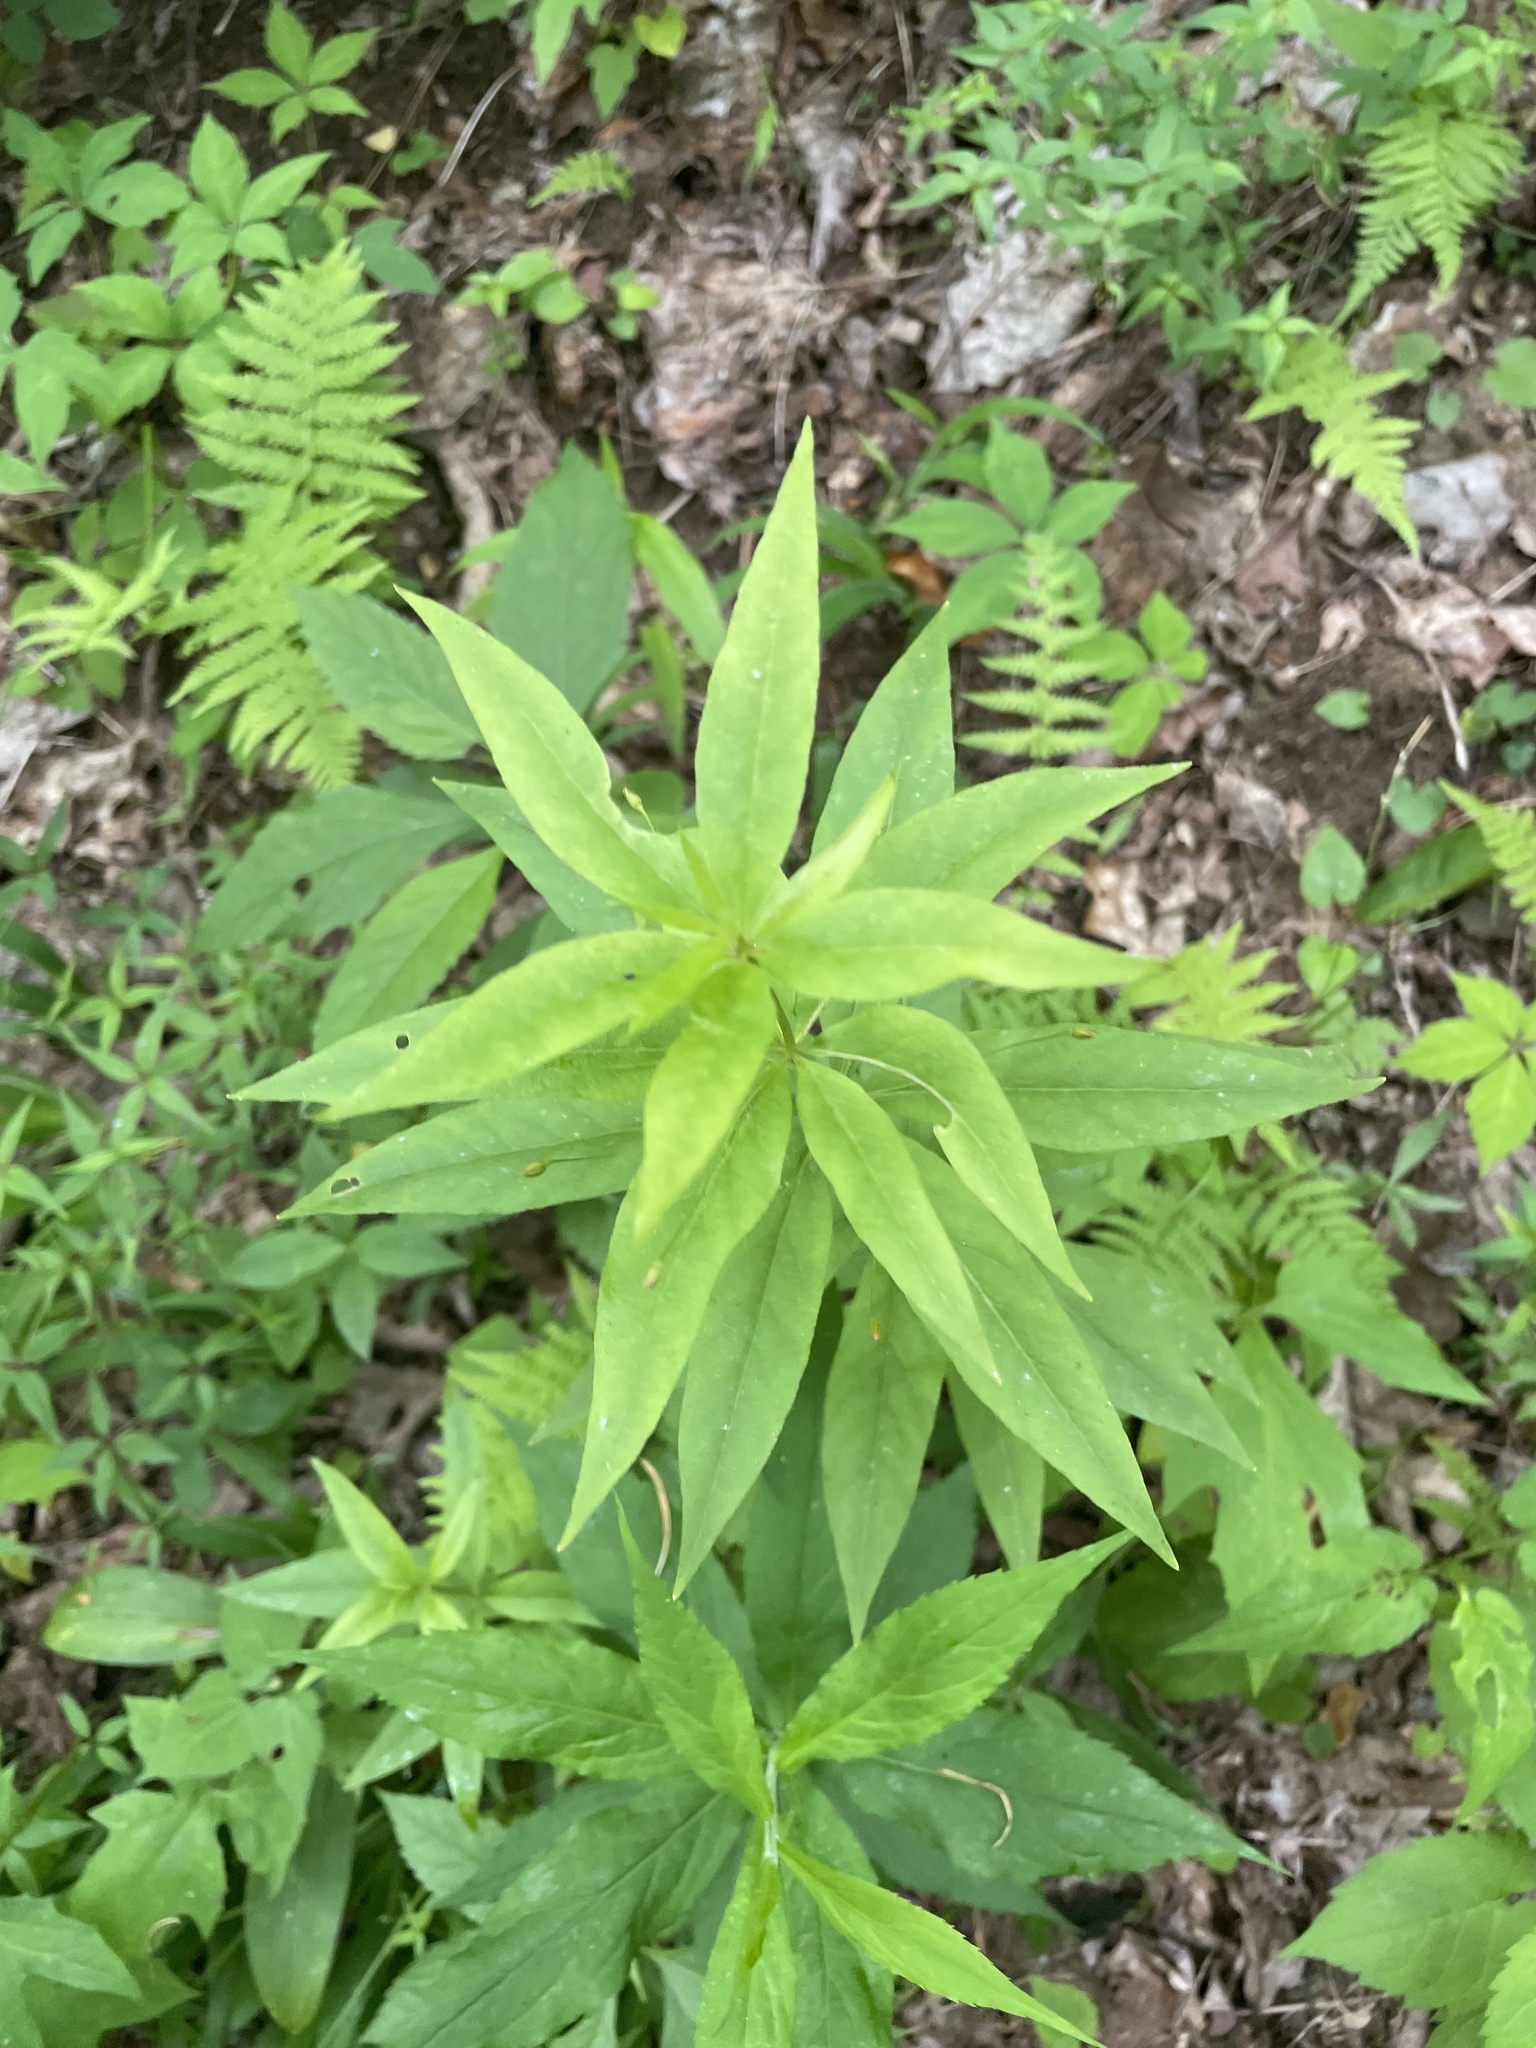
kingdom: Plantae
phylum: Tracheophyta
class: Magnoliopsida
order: Ericales
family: Primulaceae
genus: Lysimachia
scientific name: Lysimachia quadrifolia
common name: Whorled loosestrife
